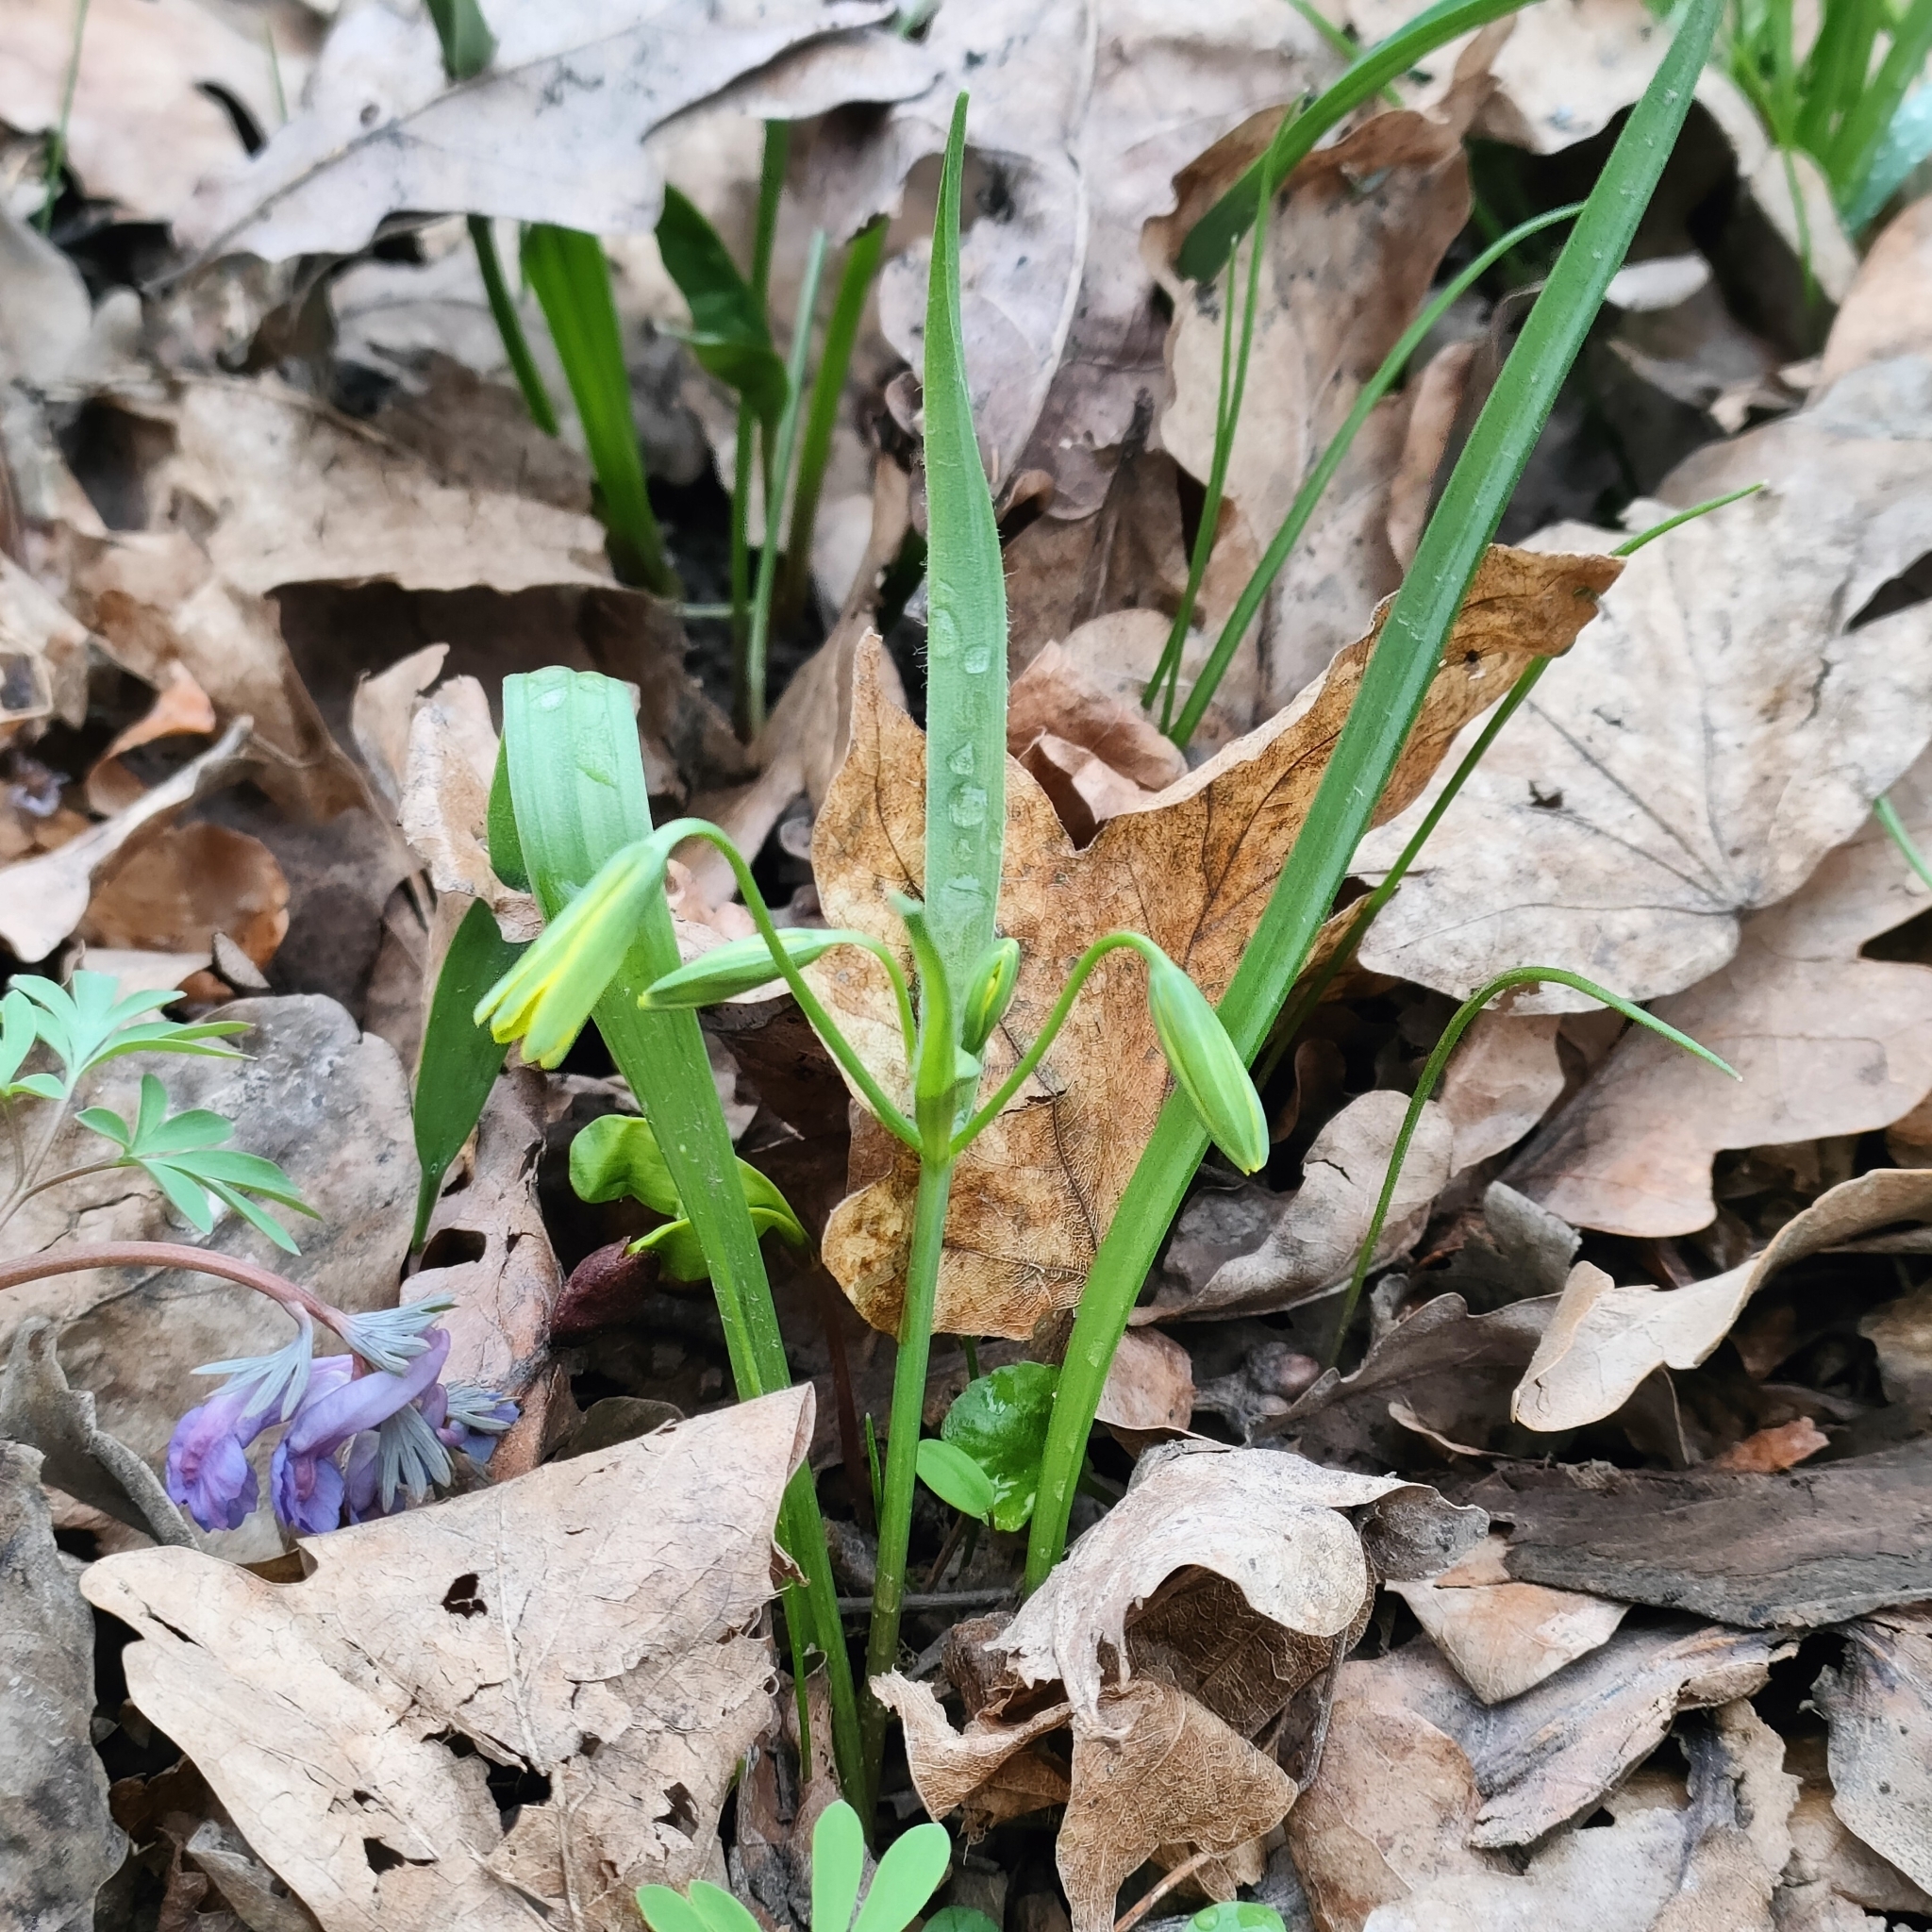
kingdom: Plantae
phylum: Tracheophyta
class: Liliopsida
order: Liliales
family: Liliaceae
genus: Gagea
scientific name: Gagea lutea
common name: Yellow star-of-bethlehem
